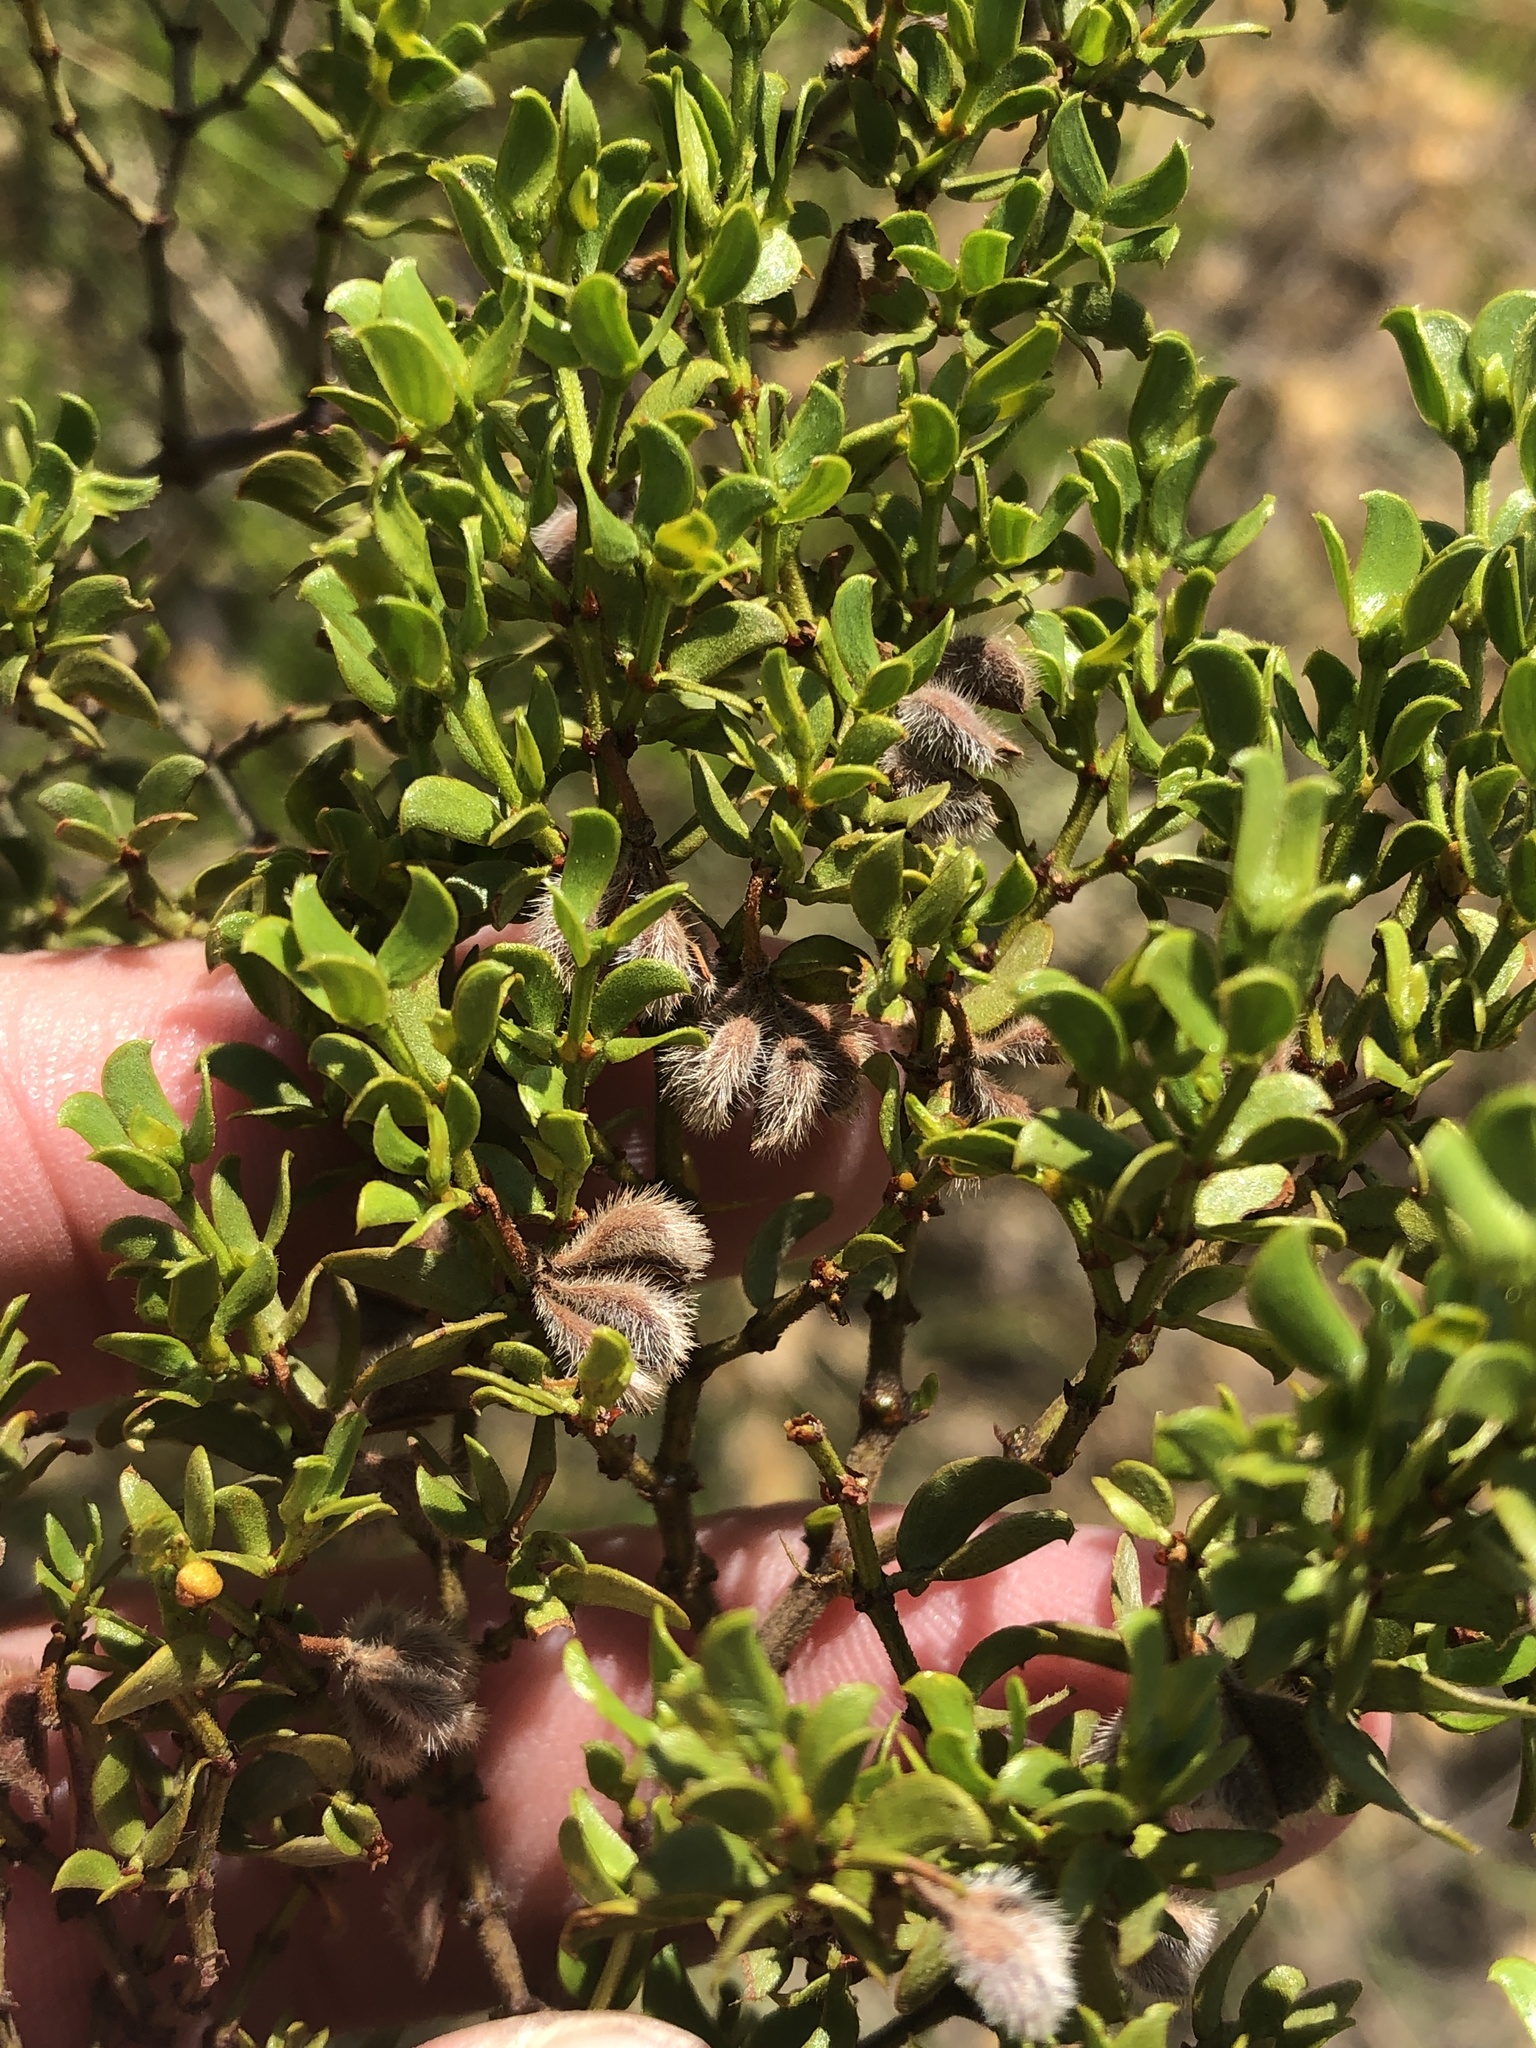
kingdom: Plantae
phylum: Tracheophyta
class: Magnoliopsida
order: Zygophyllales
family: Zygophyllaceae
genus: Larrea
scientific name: Larrea tridentata
